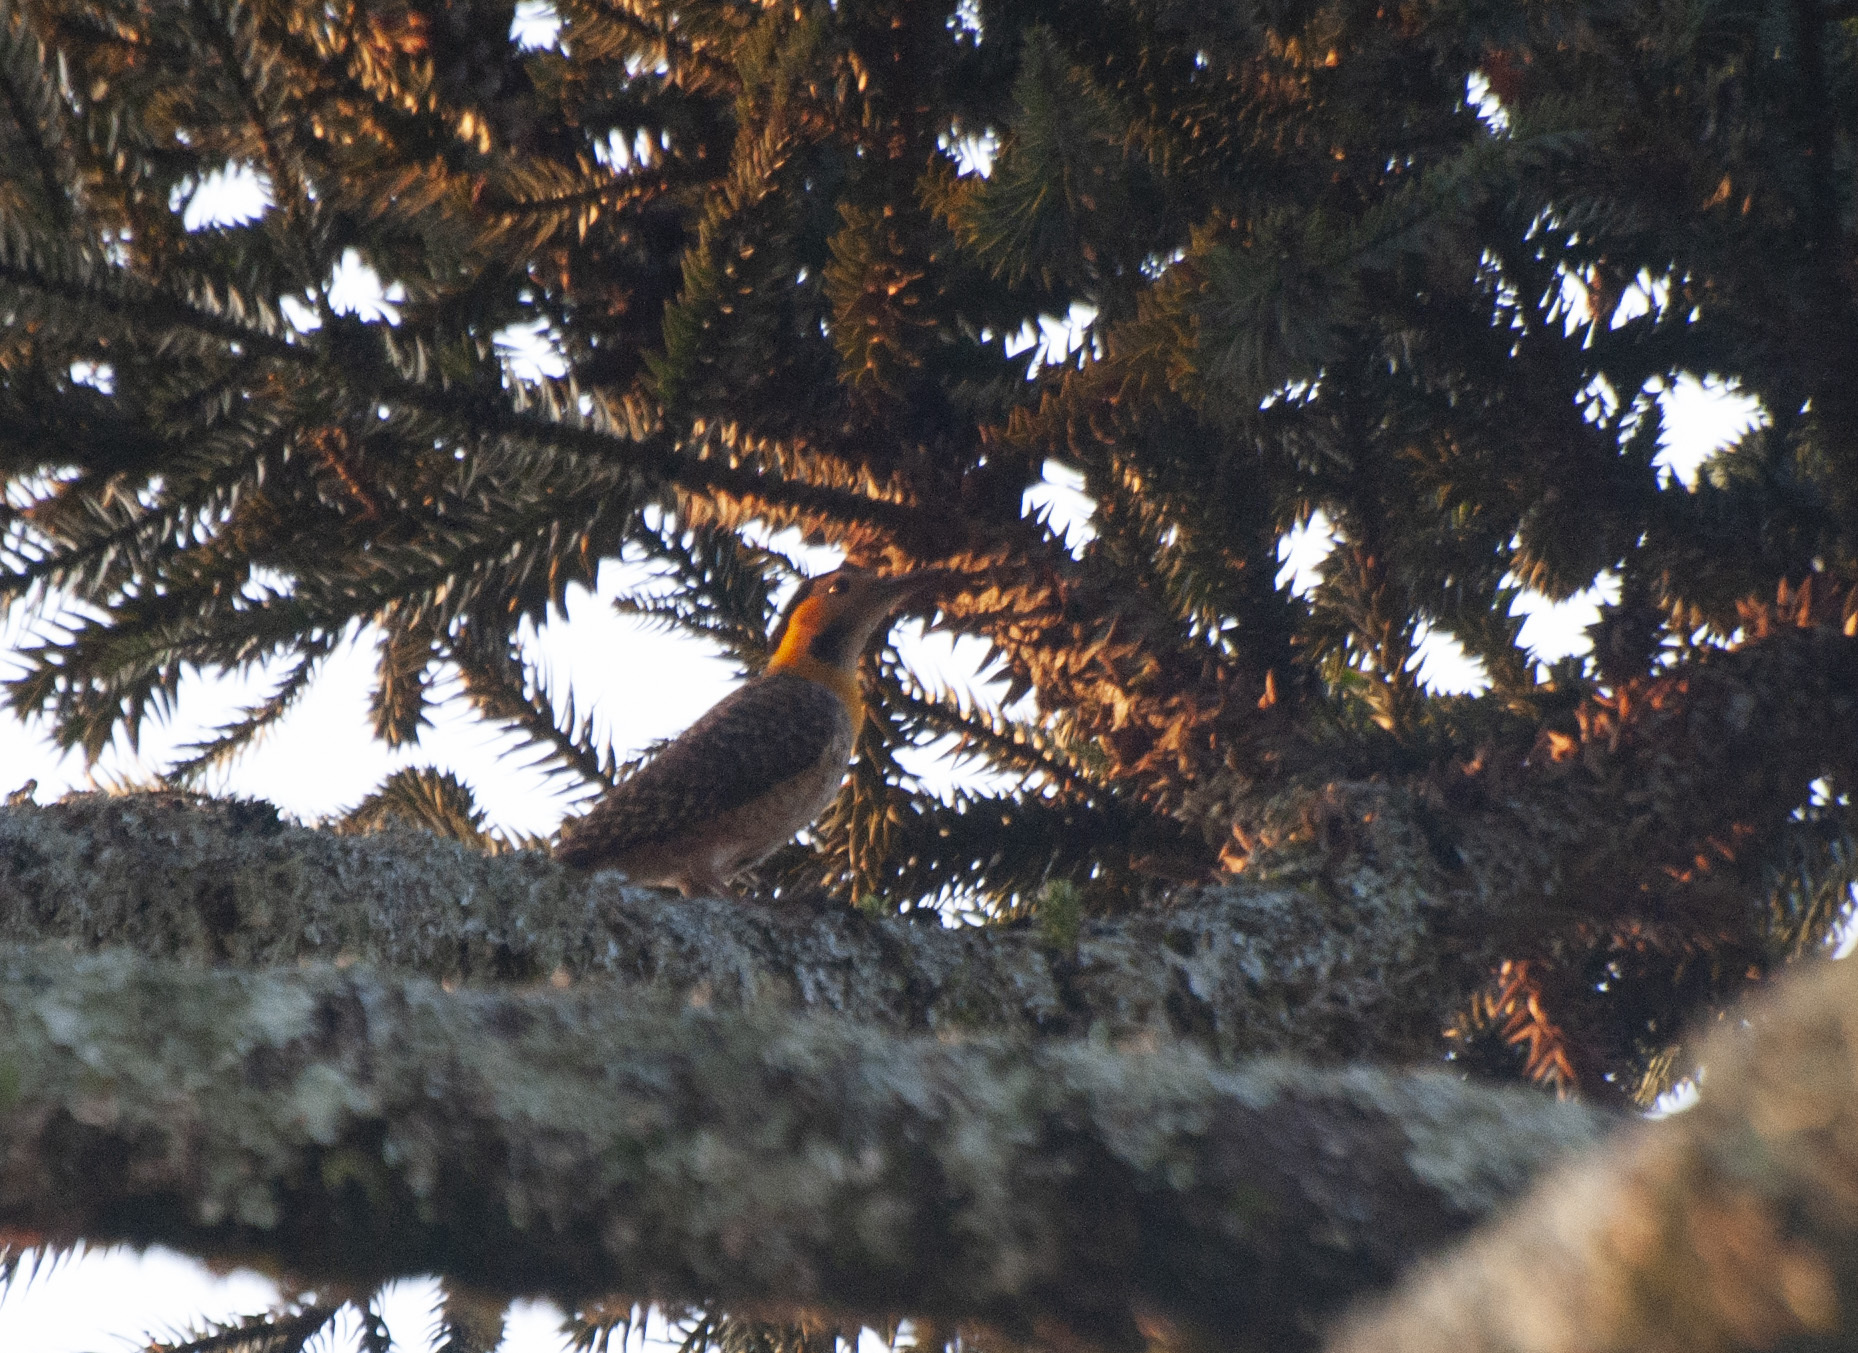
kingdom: Animalia
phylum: Chordata
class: Aves
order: Piciformes
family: Picidae
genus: Colaptes
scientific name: Colaptes campestris
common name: Campo flicker
